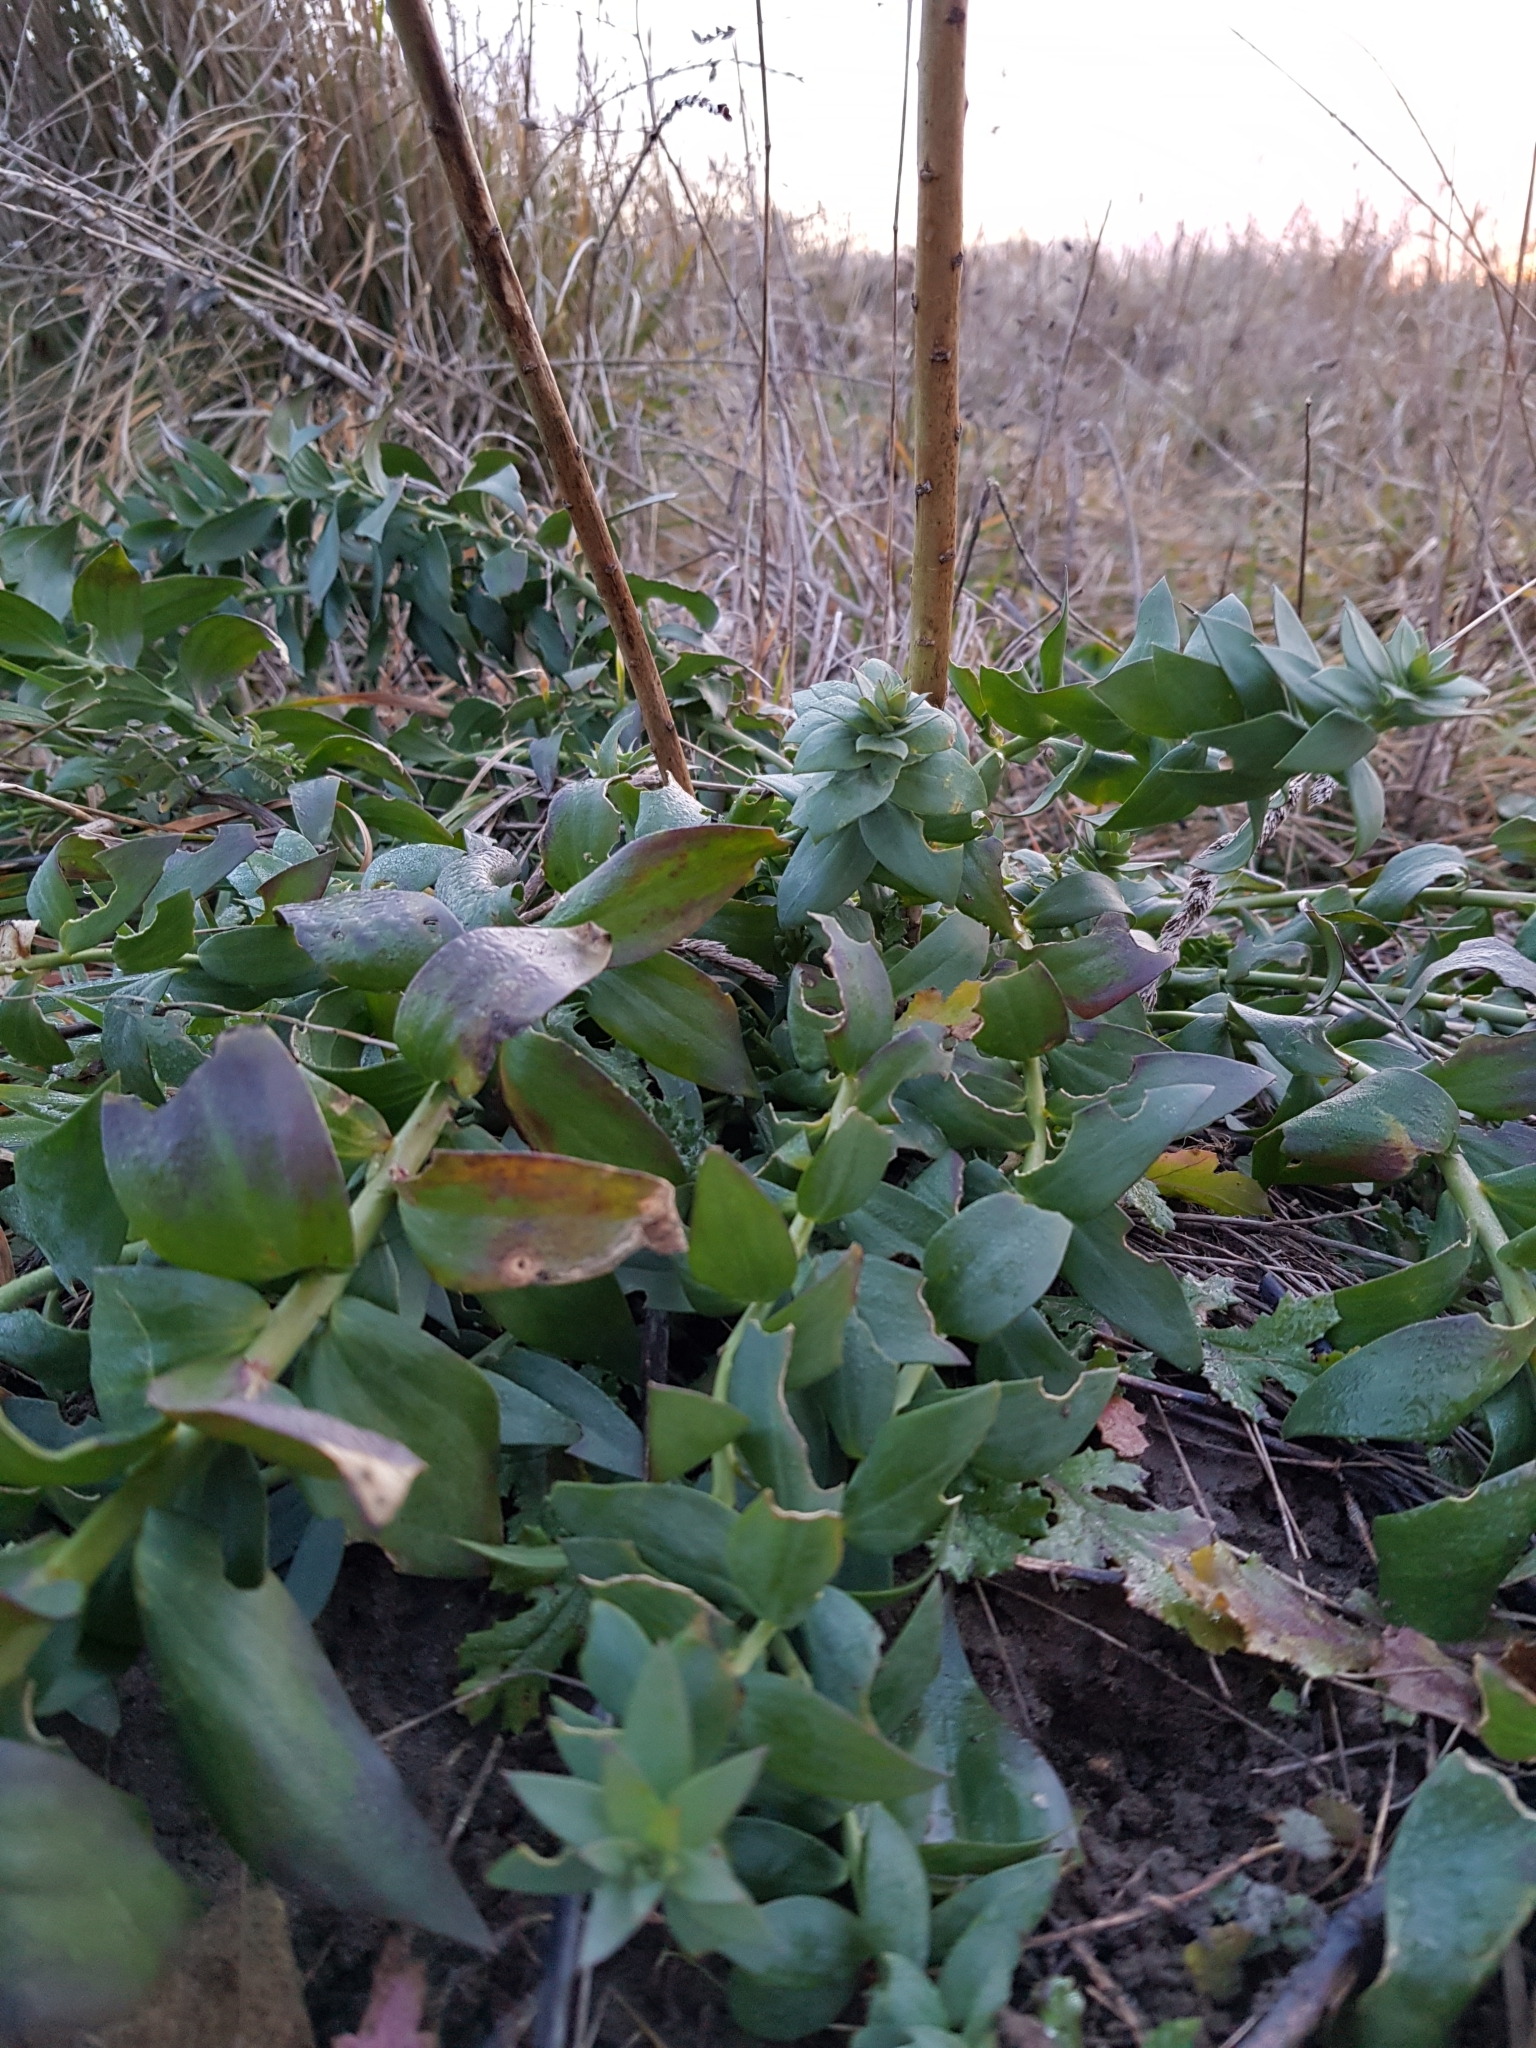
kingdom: Plantae
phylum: Tracheophyta
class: Magnoliopsida
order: Lamiales
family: Plantaginaceae
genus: Linaria
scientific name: Linaria genistifolia
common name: Broomleaf toadflax
